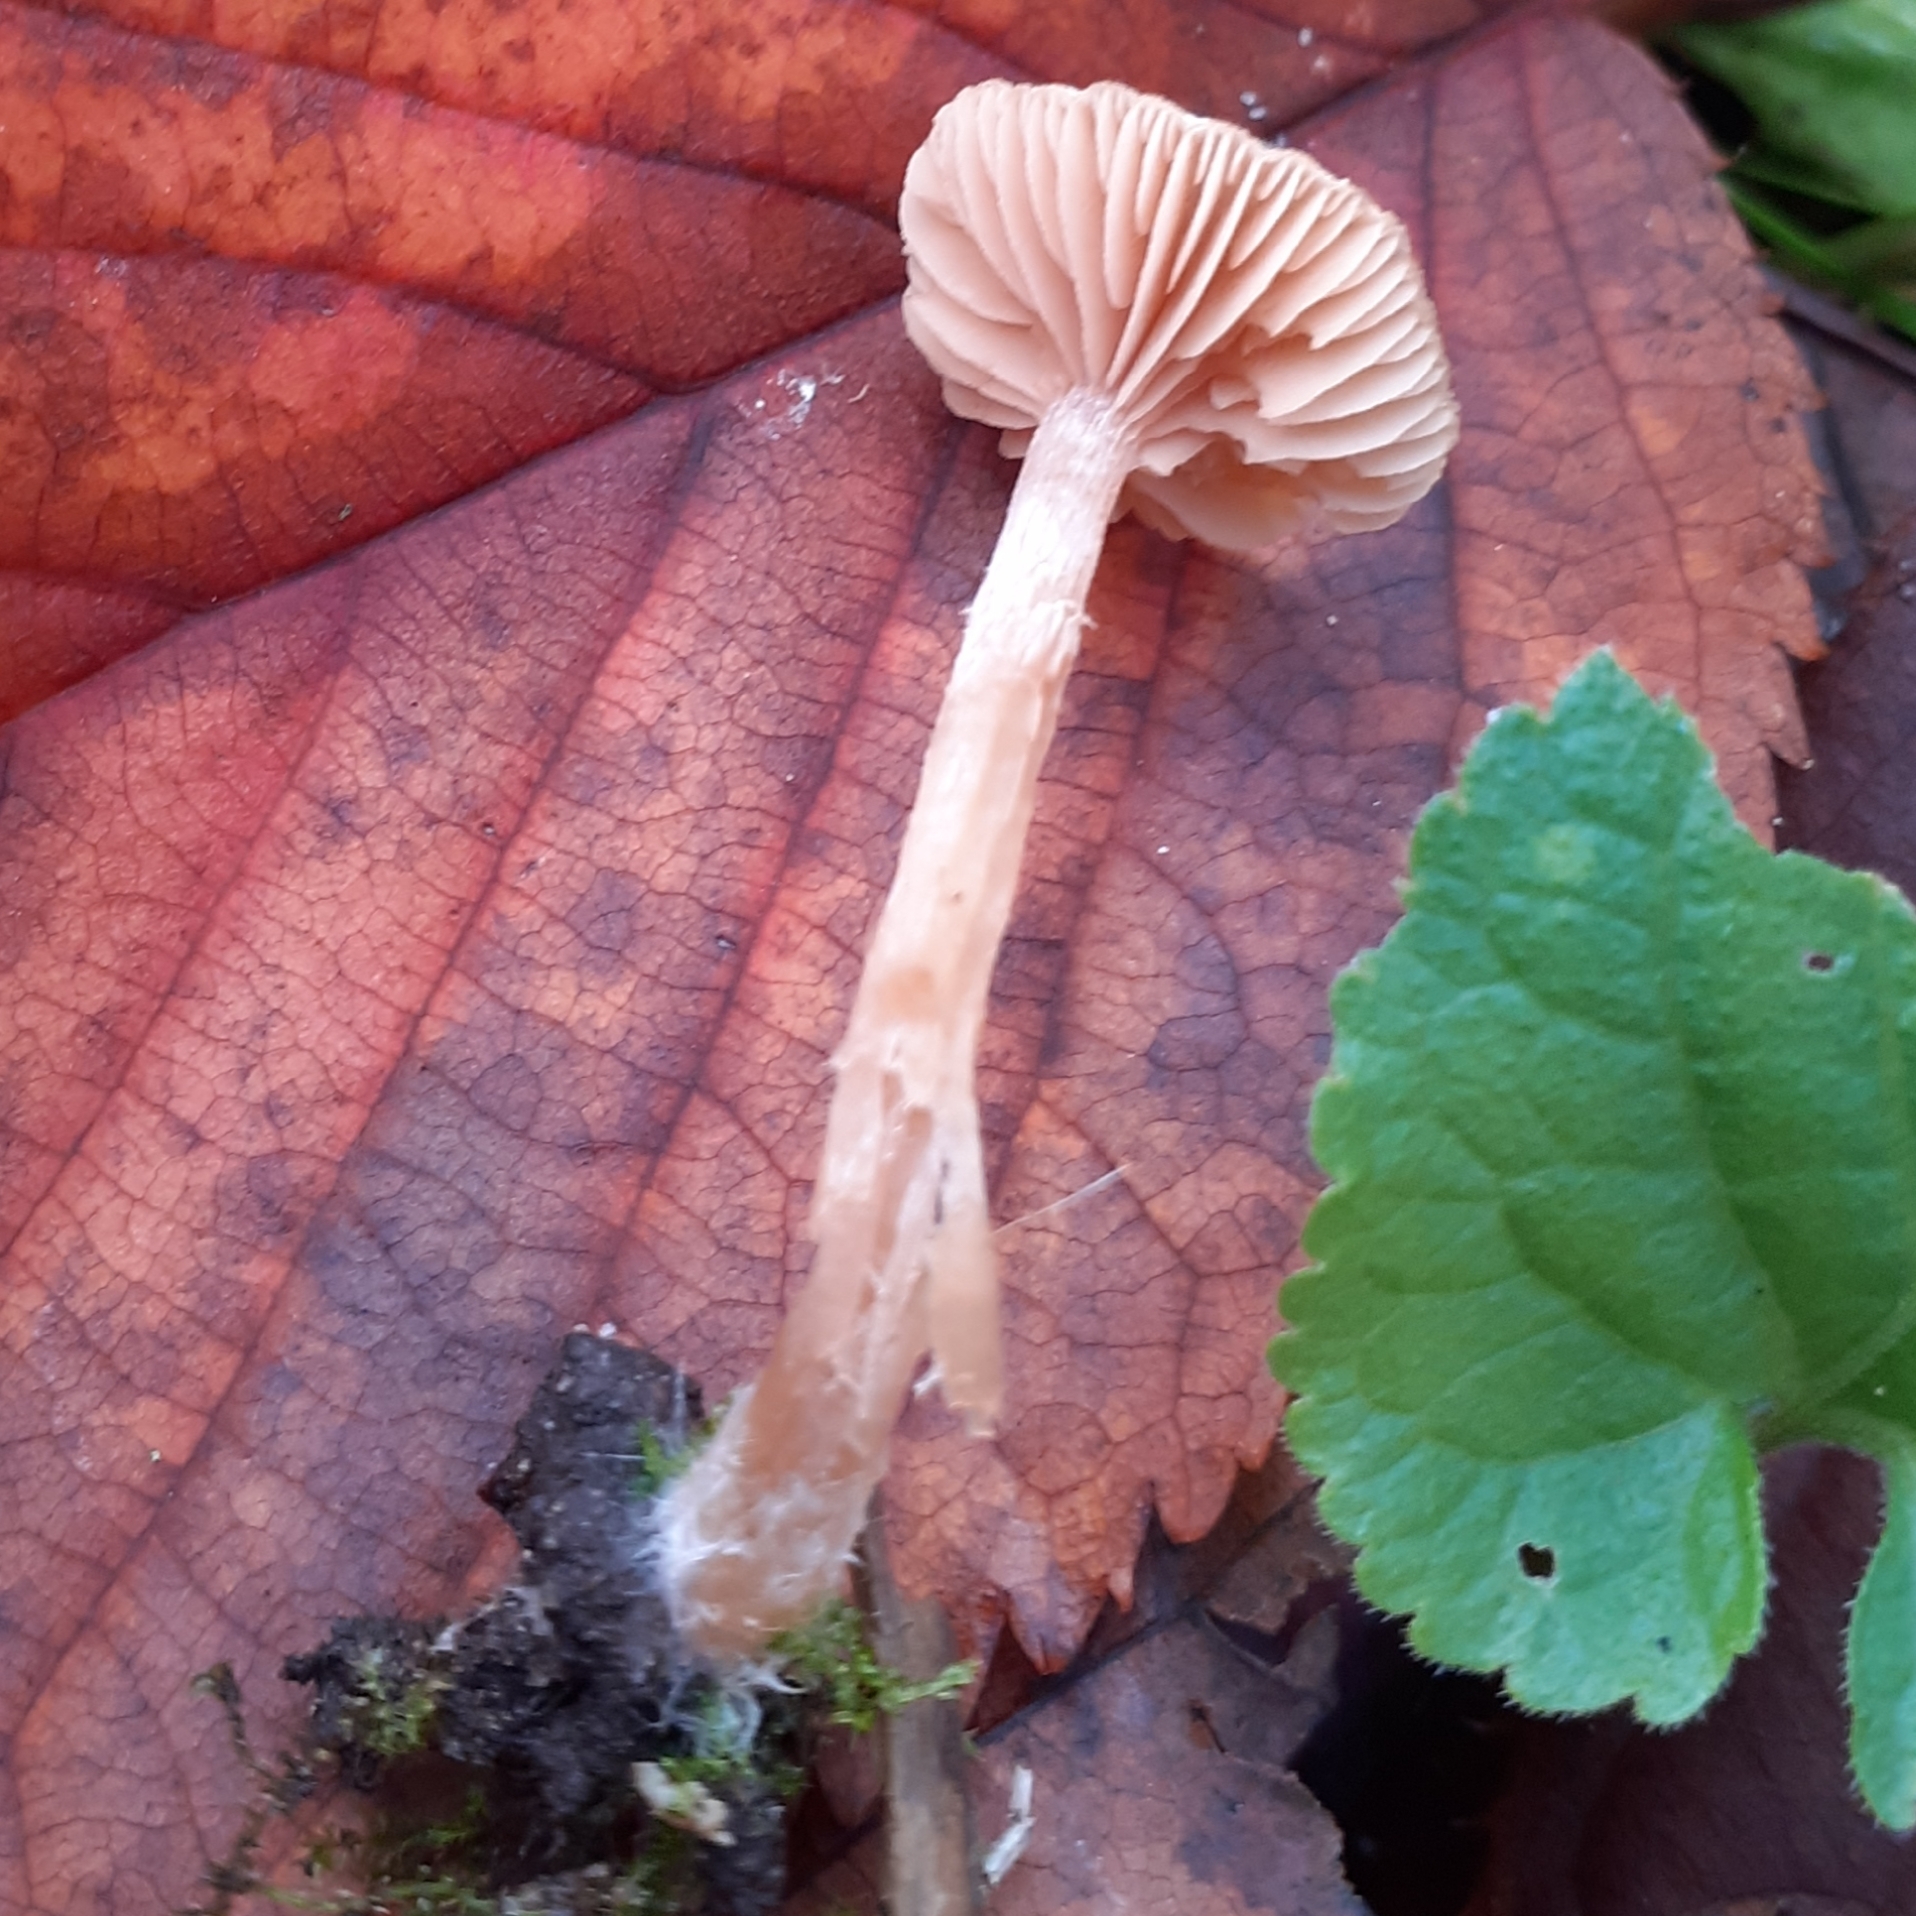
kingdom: Fungi
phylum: Basidiomycota
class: Agaricomycetes
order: Agaricales
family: Tubariaceae
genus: Tubaria
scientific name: Tubaria furfuracea
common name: Scurfy twiglet
